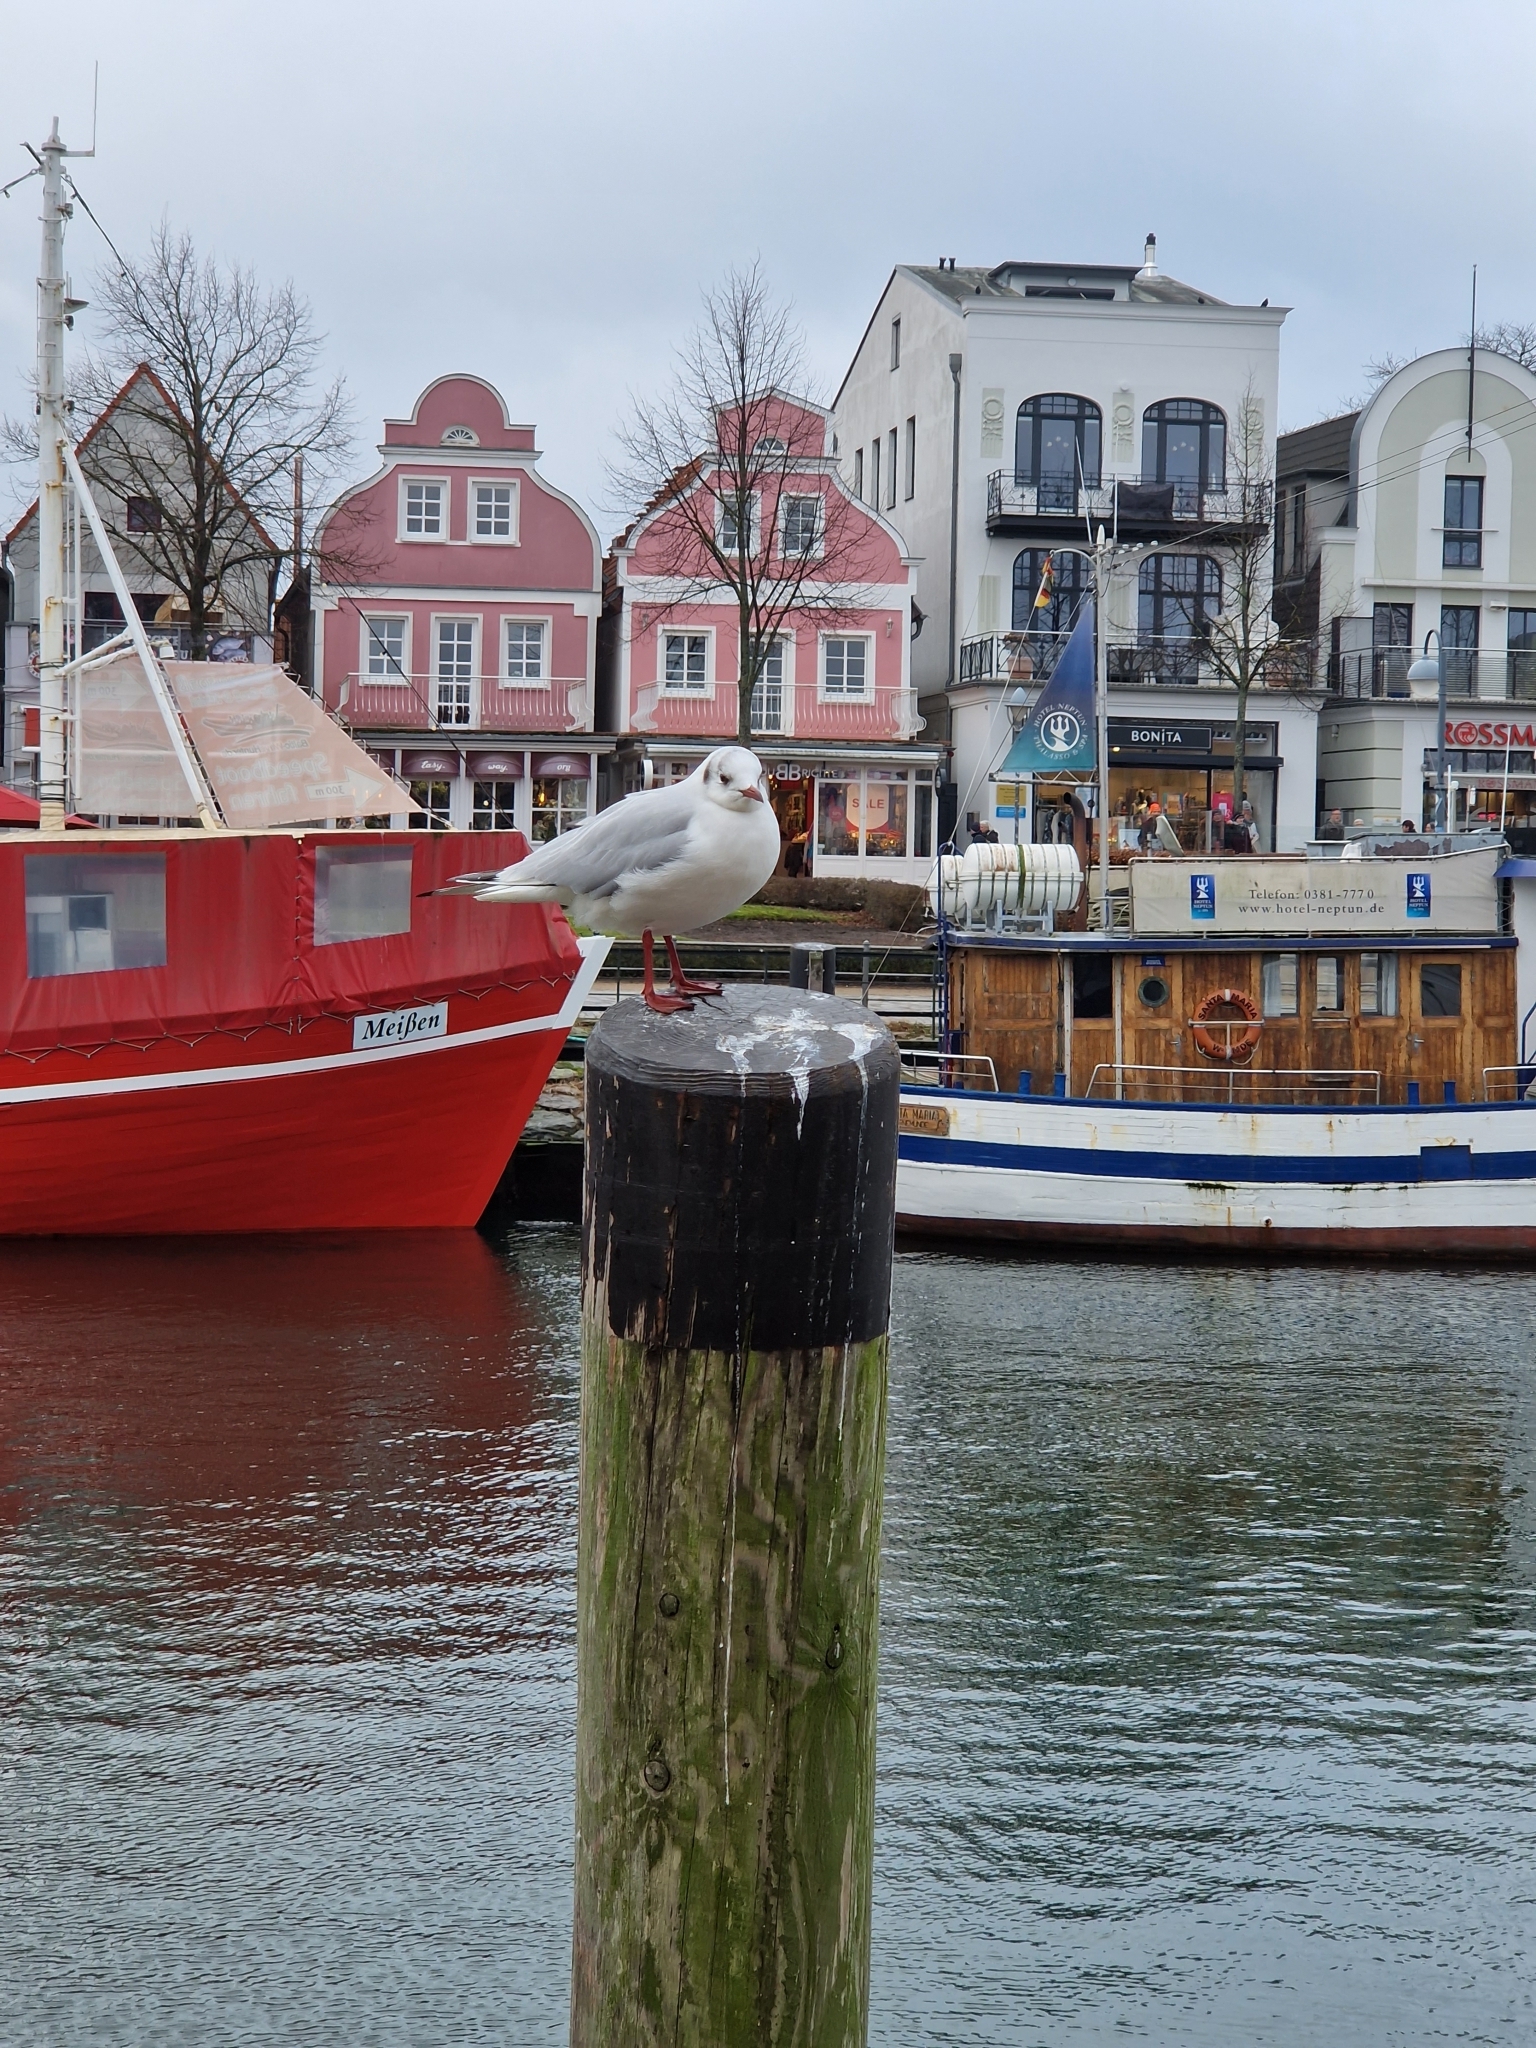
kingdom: Animalia
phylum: Chordata
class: Aves
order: Charadriiformes
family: Laridae
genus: Chroicocephalus
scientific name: Chroicocephalus ridibundus
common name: Black-headed gull
